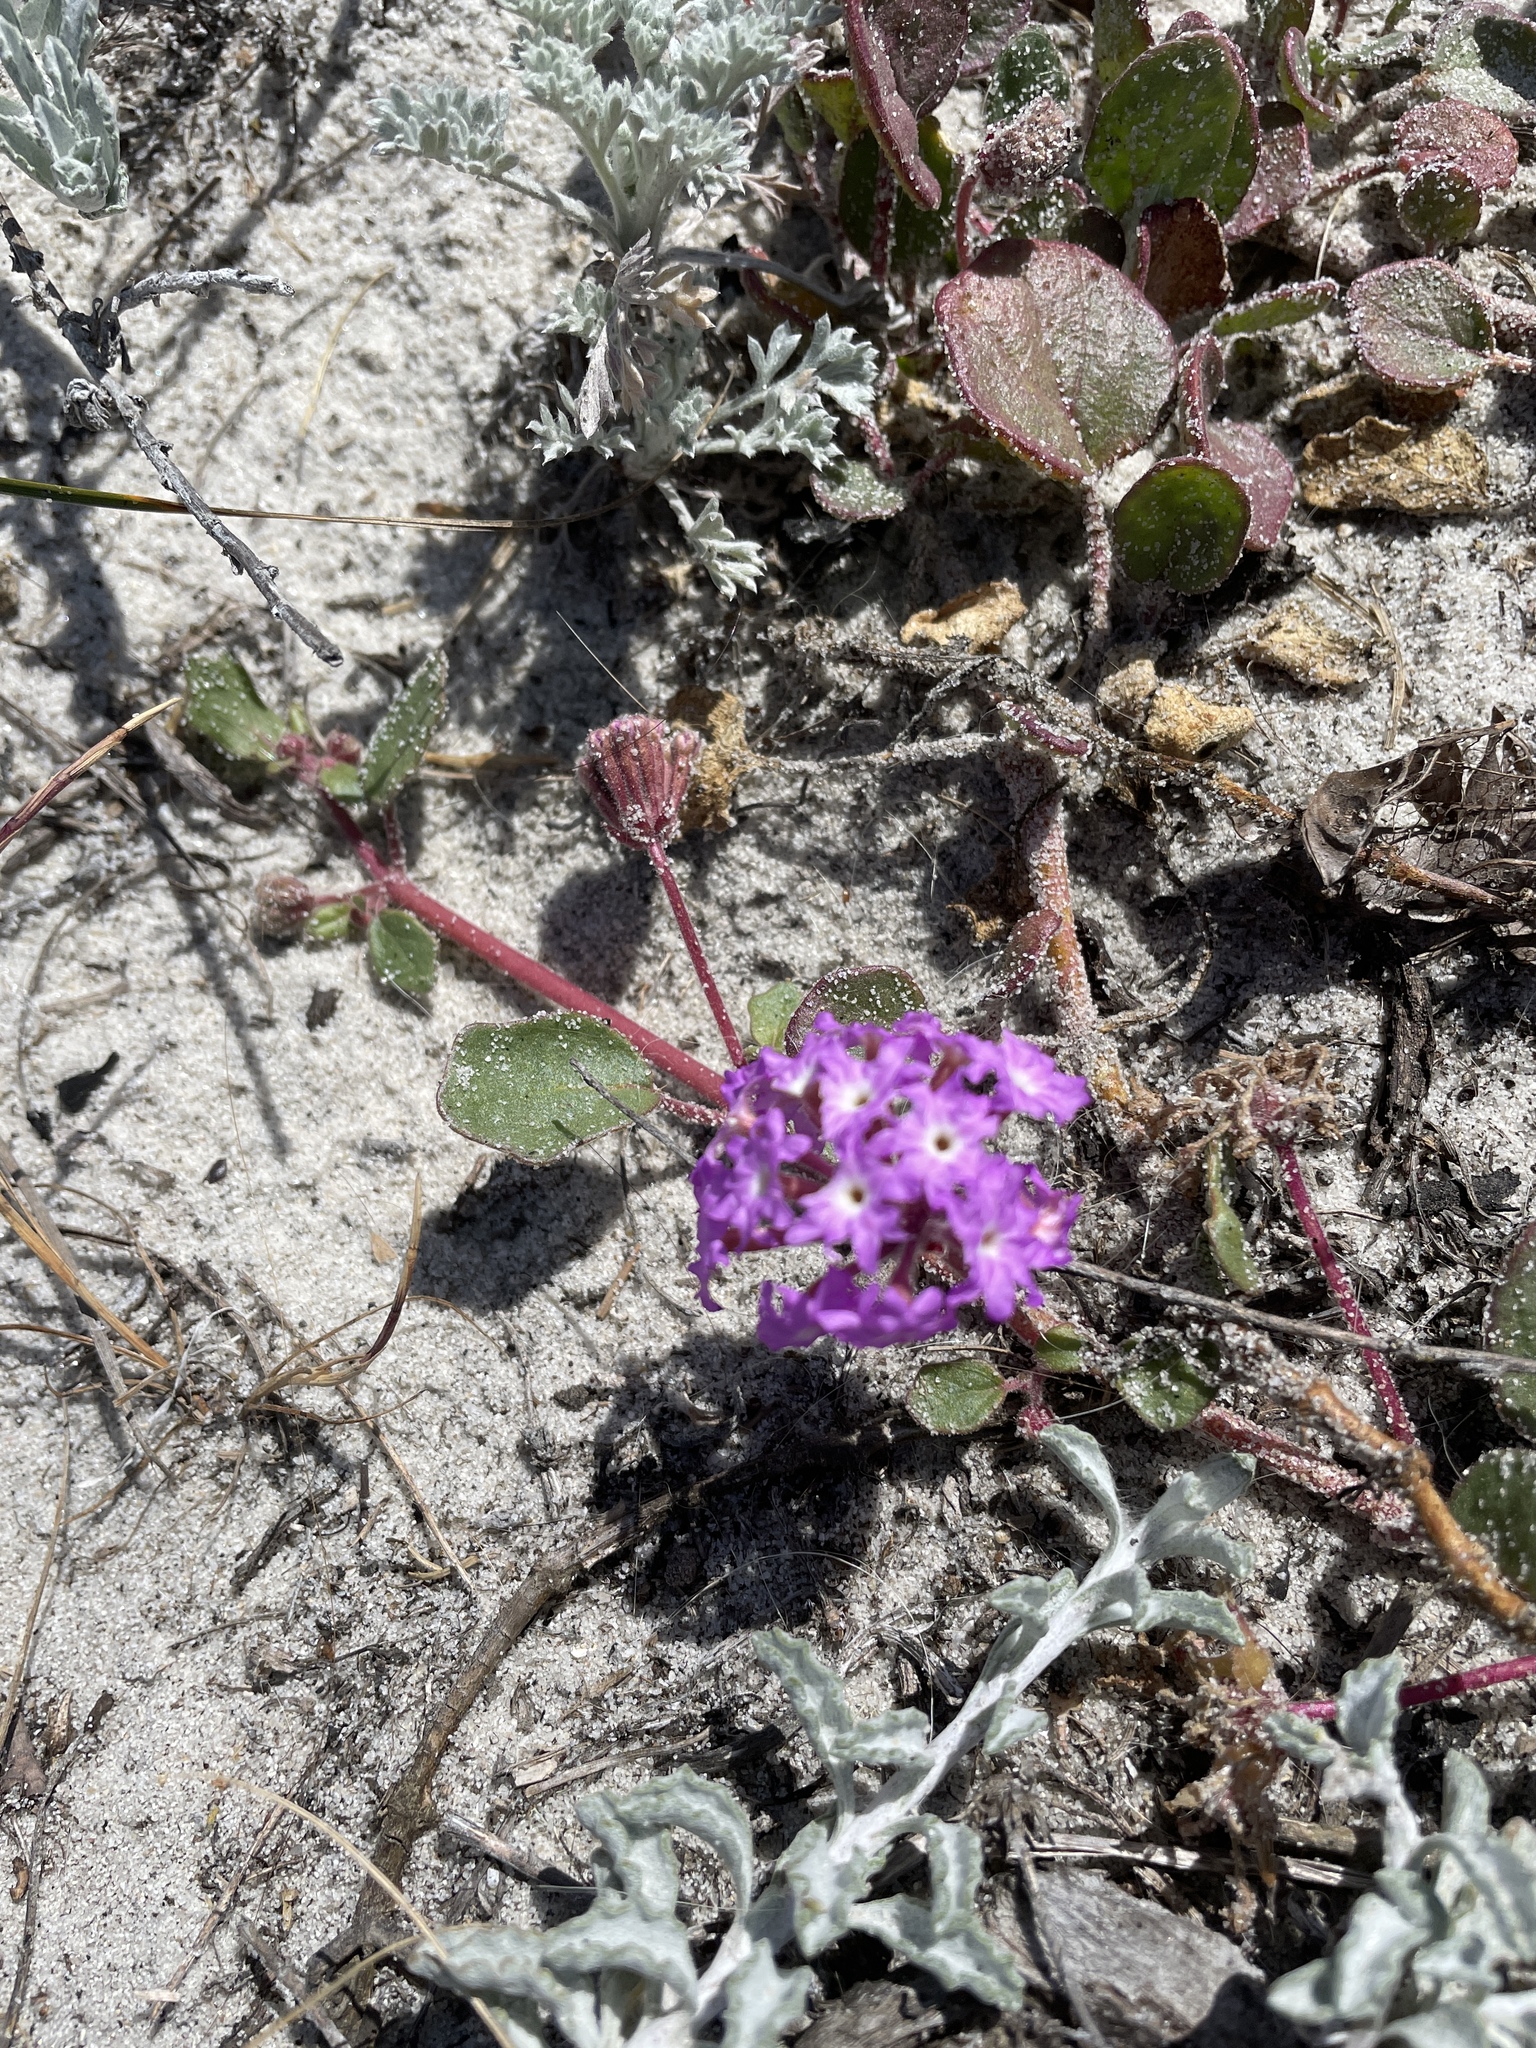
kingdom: Plantae
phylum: Tracheophyta
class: Magnoliopsida
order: Caryophyllales
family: Nyctaginaceae
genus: Abronia
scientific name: Abronia umbellata
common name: Sand-verbena
